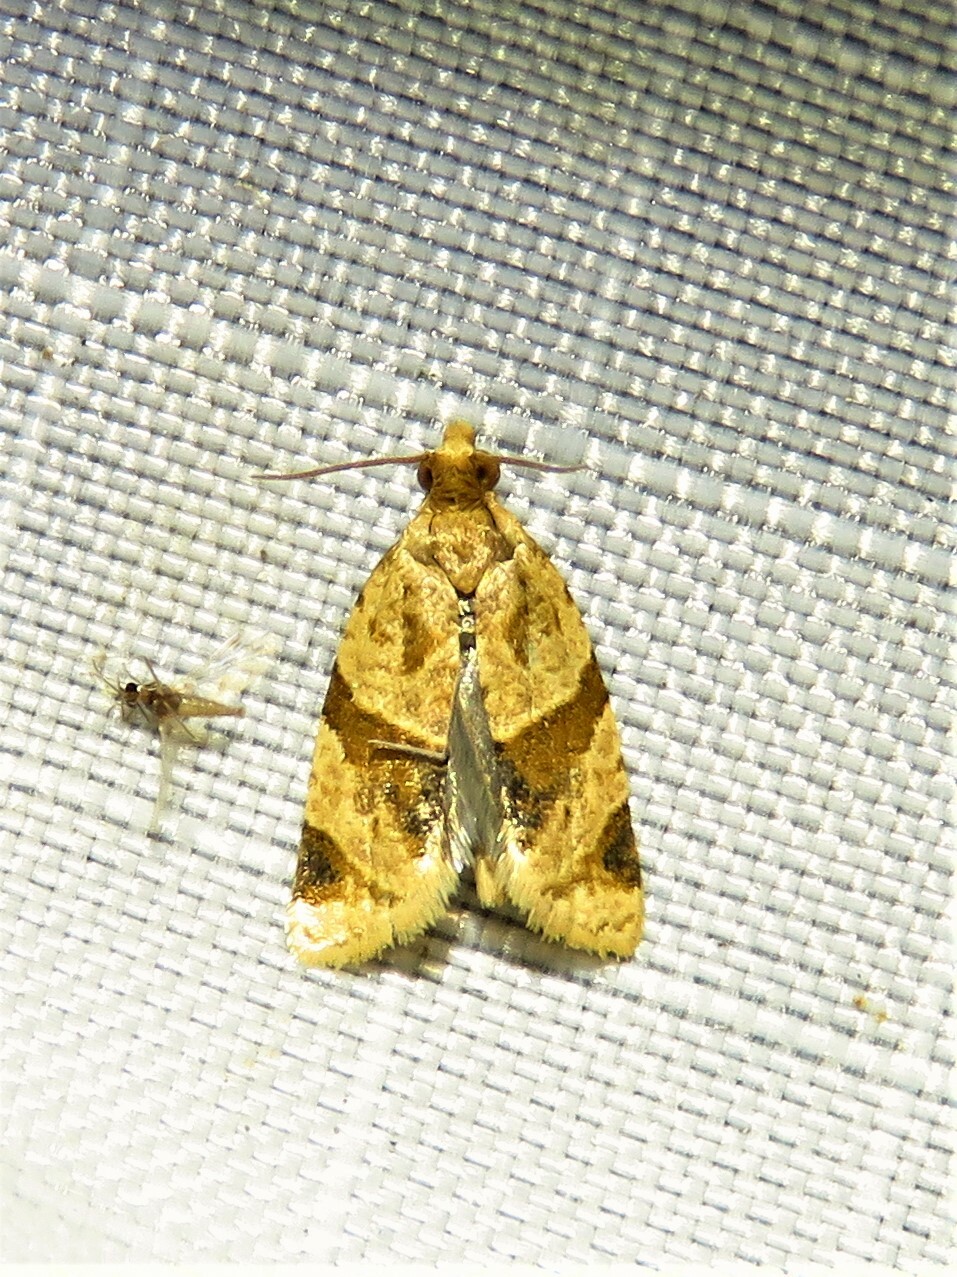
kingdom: Animalia
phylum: Arthropoda
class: Insecta
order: Lepidoptera
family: Tortricidae
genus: Clepsis
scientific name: Clepsis peritana
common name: Garden tortrix
